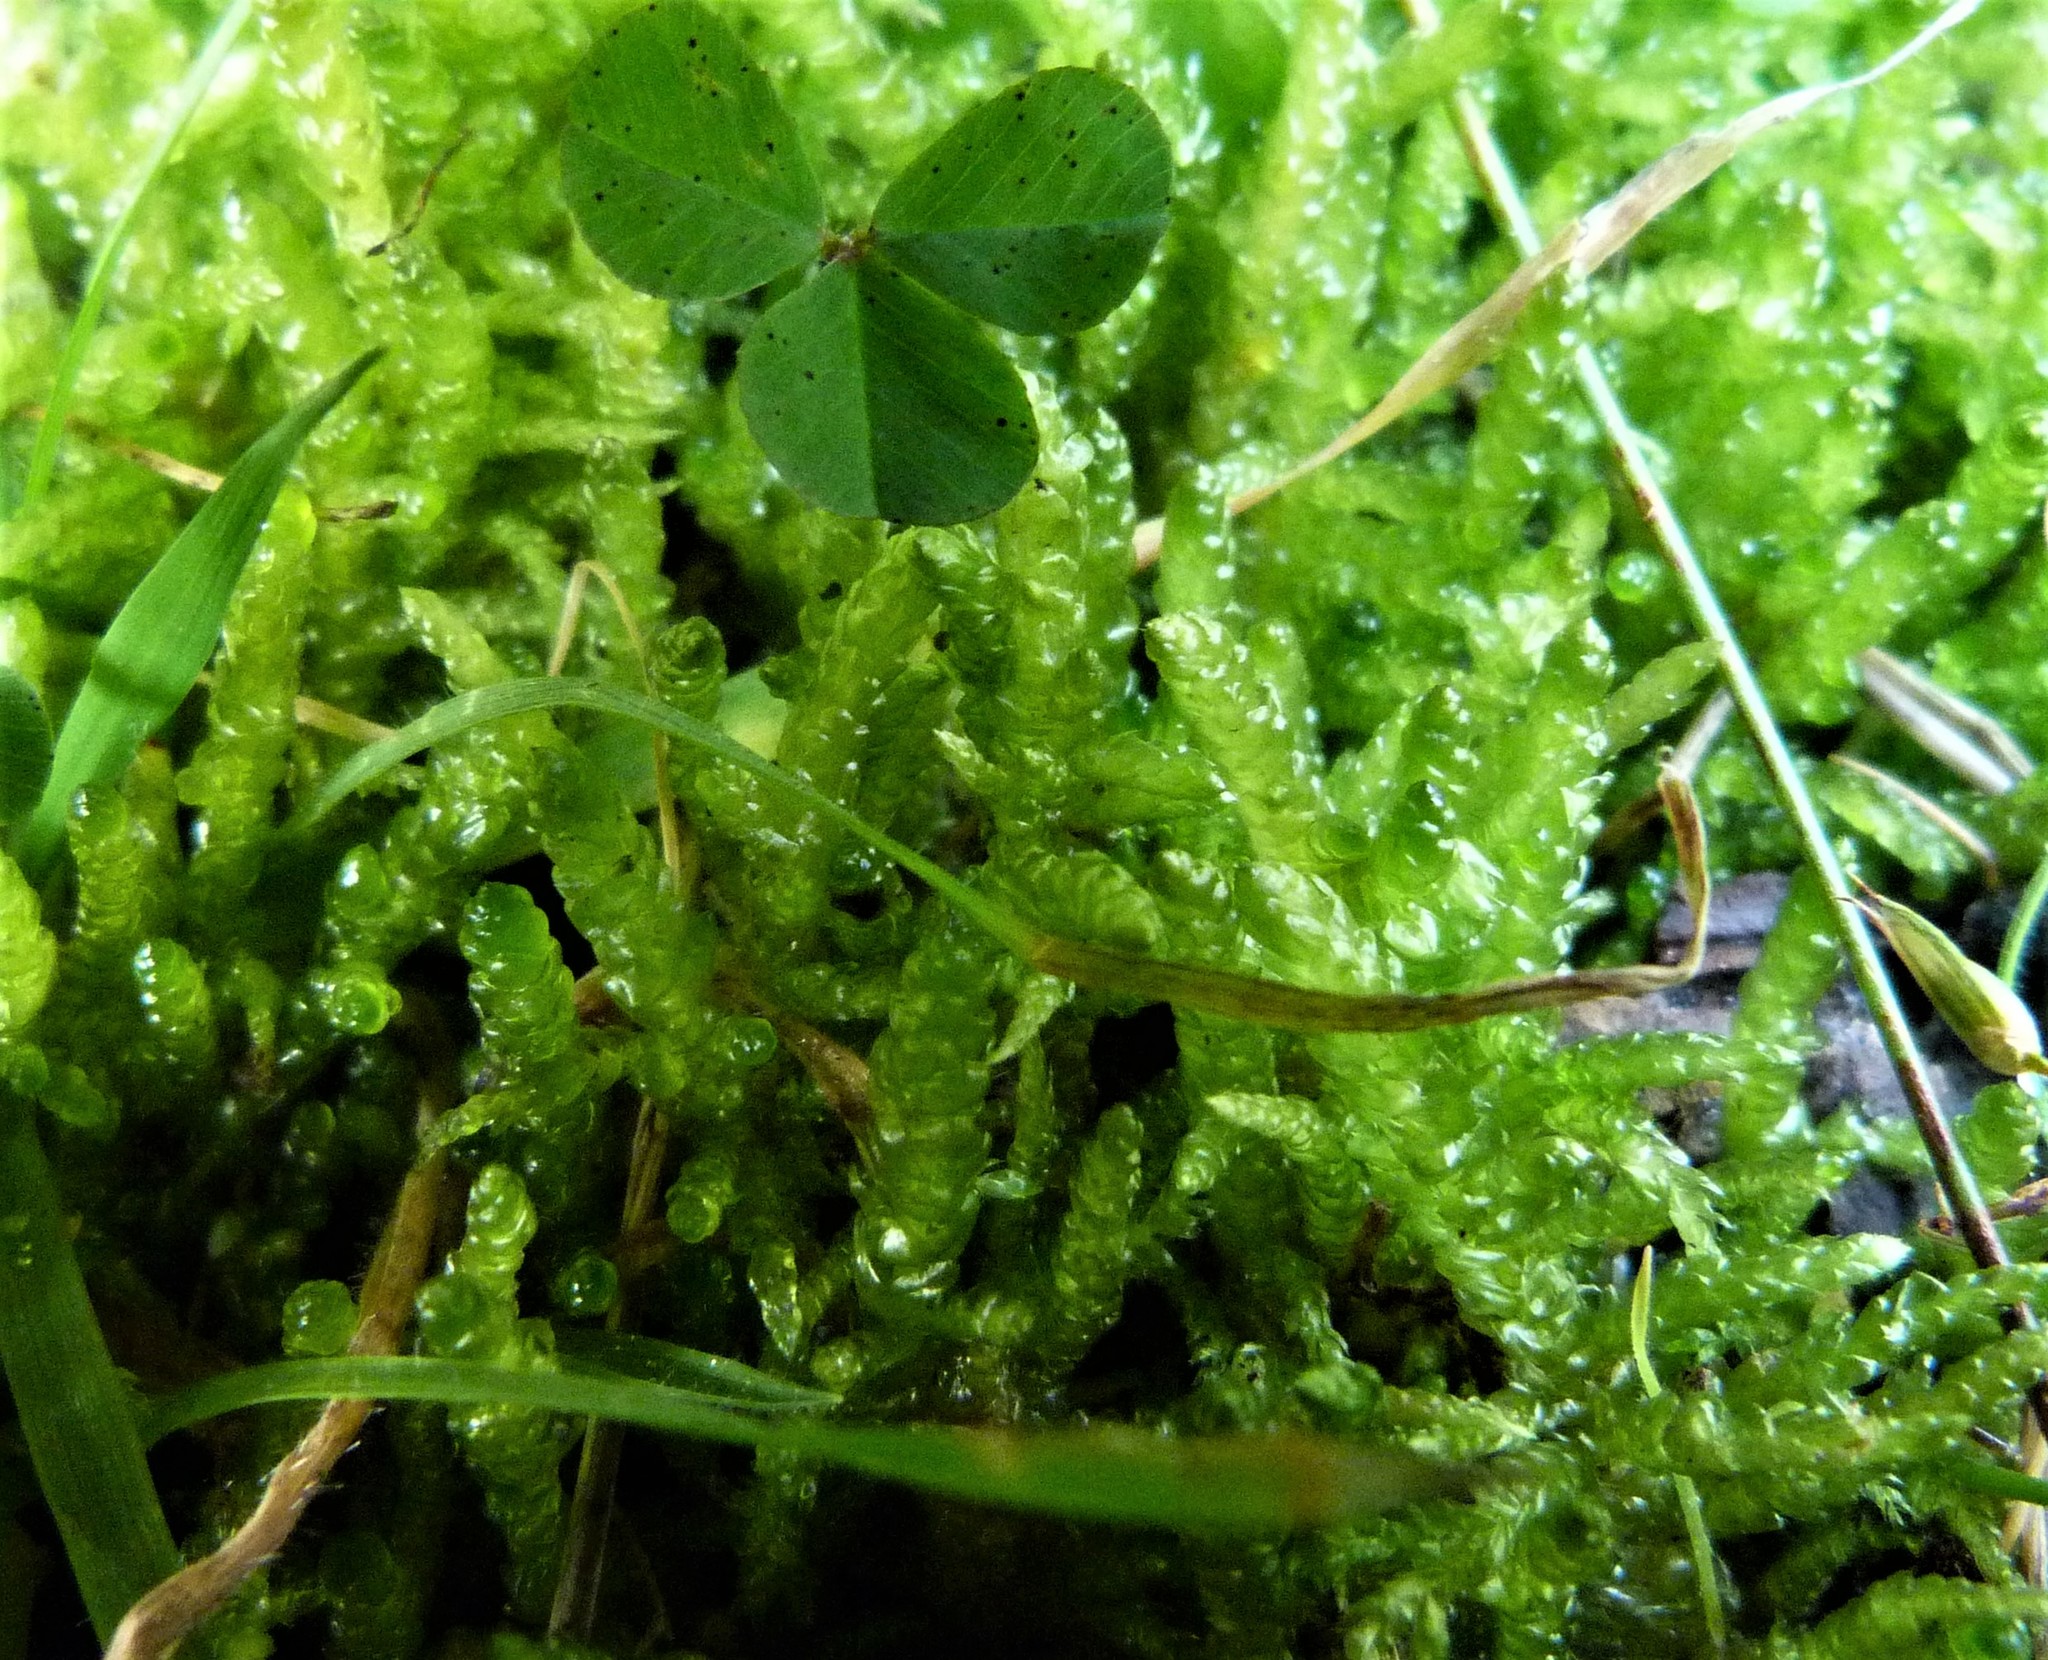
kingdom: Plantae
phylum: Bryophyta
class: Bryopsida
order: Hypnales
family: Acrocladiaceae
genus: Acrocladium
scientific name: Acrocladium chlamydophyllum
